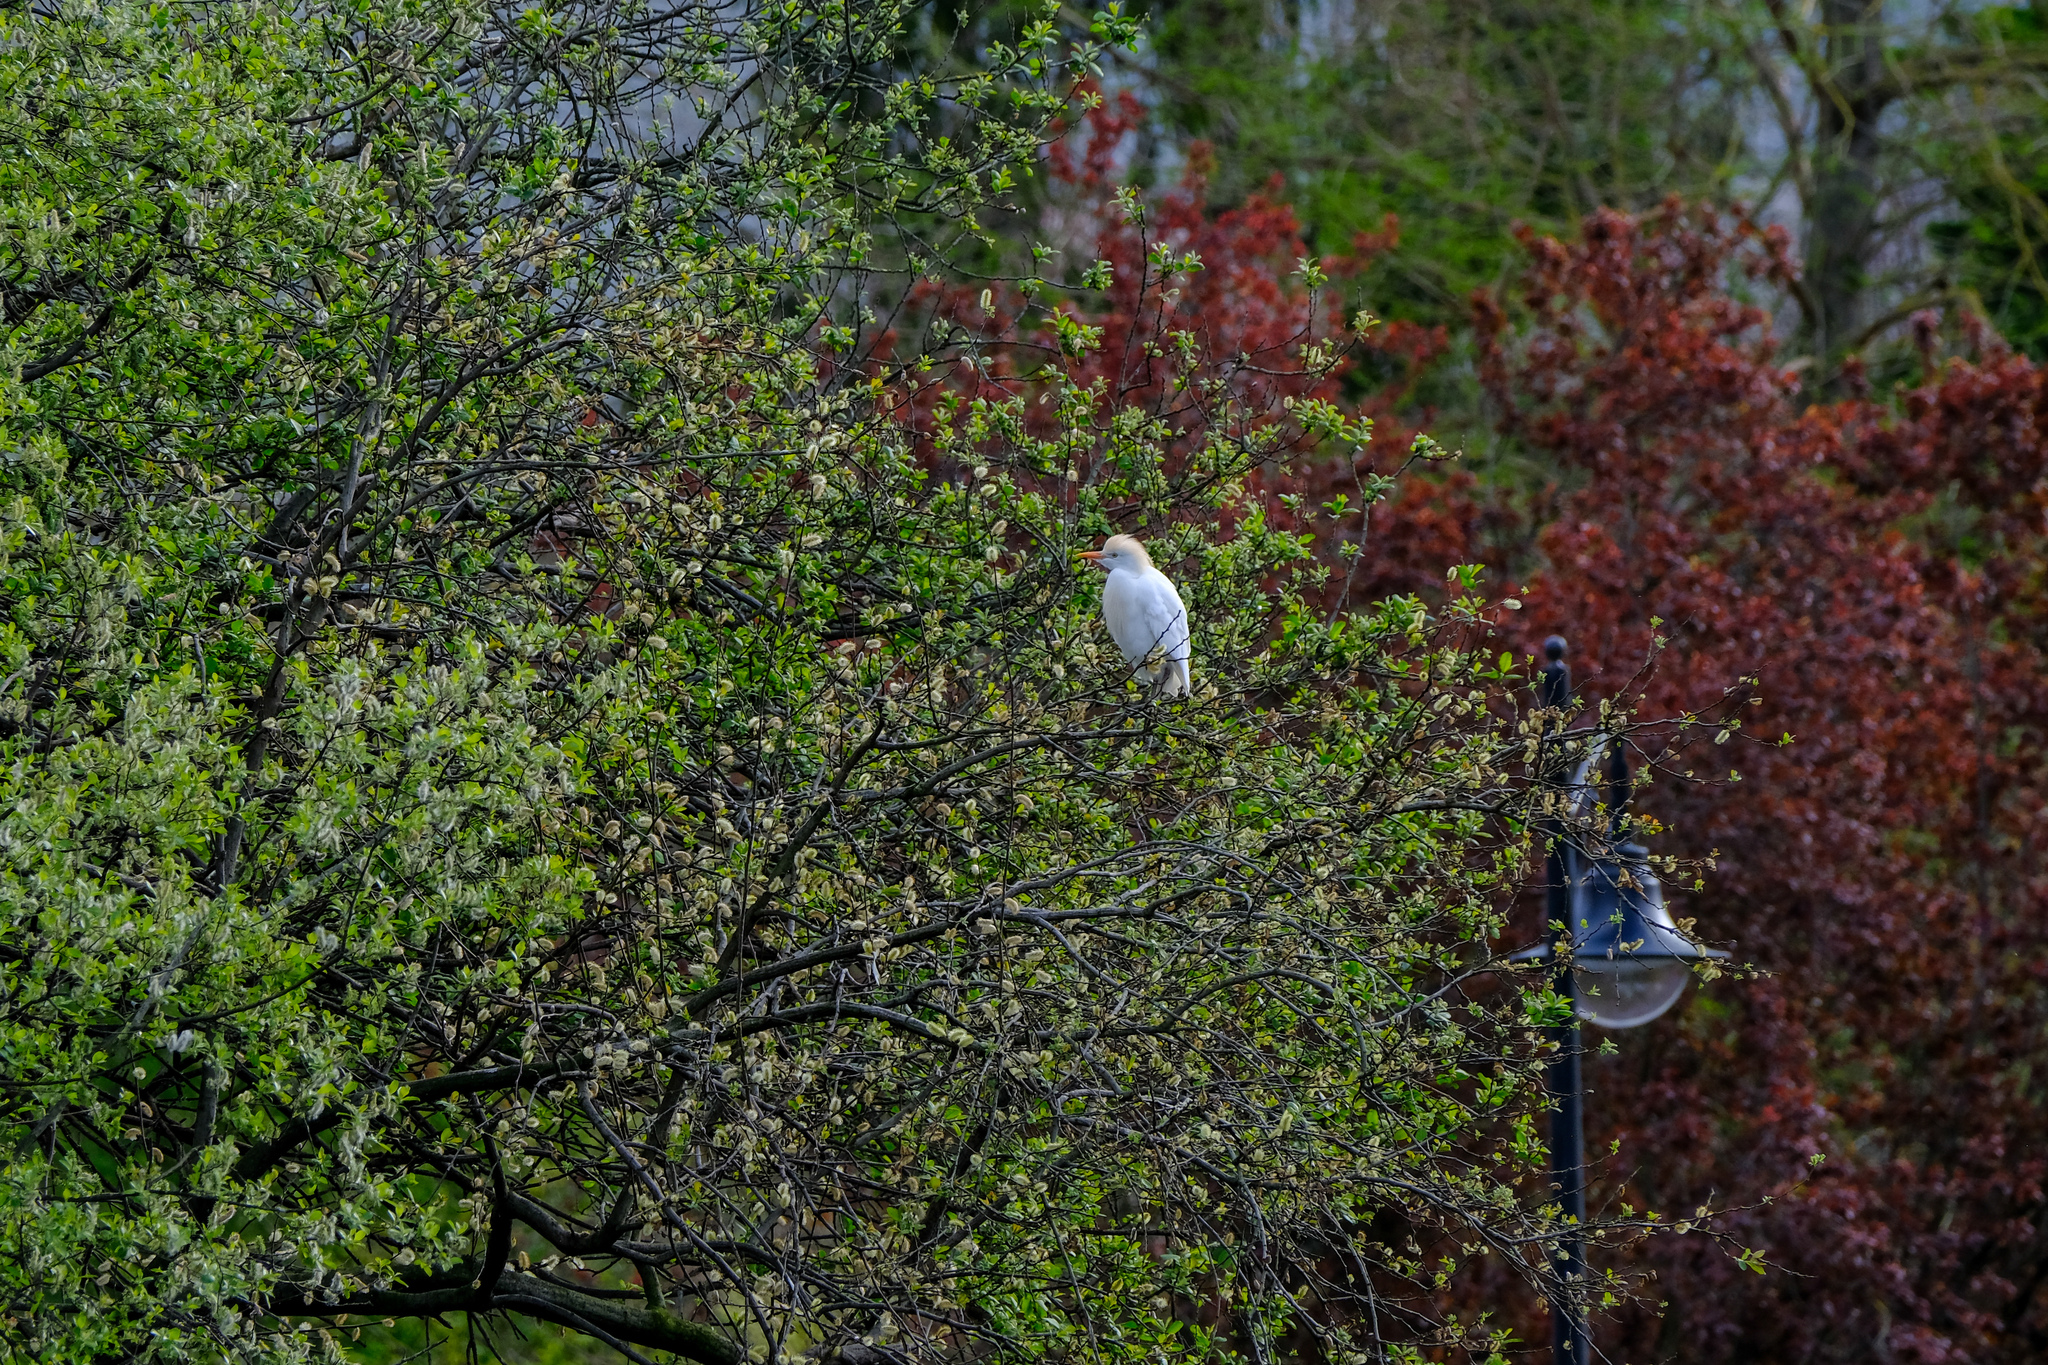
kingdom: Animalia
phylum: Chordata
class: Aves
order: Pelecaniformes
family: Ardeidae
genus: Bubulcus
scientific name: Bubulcus ibis
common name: Cattle egret
